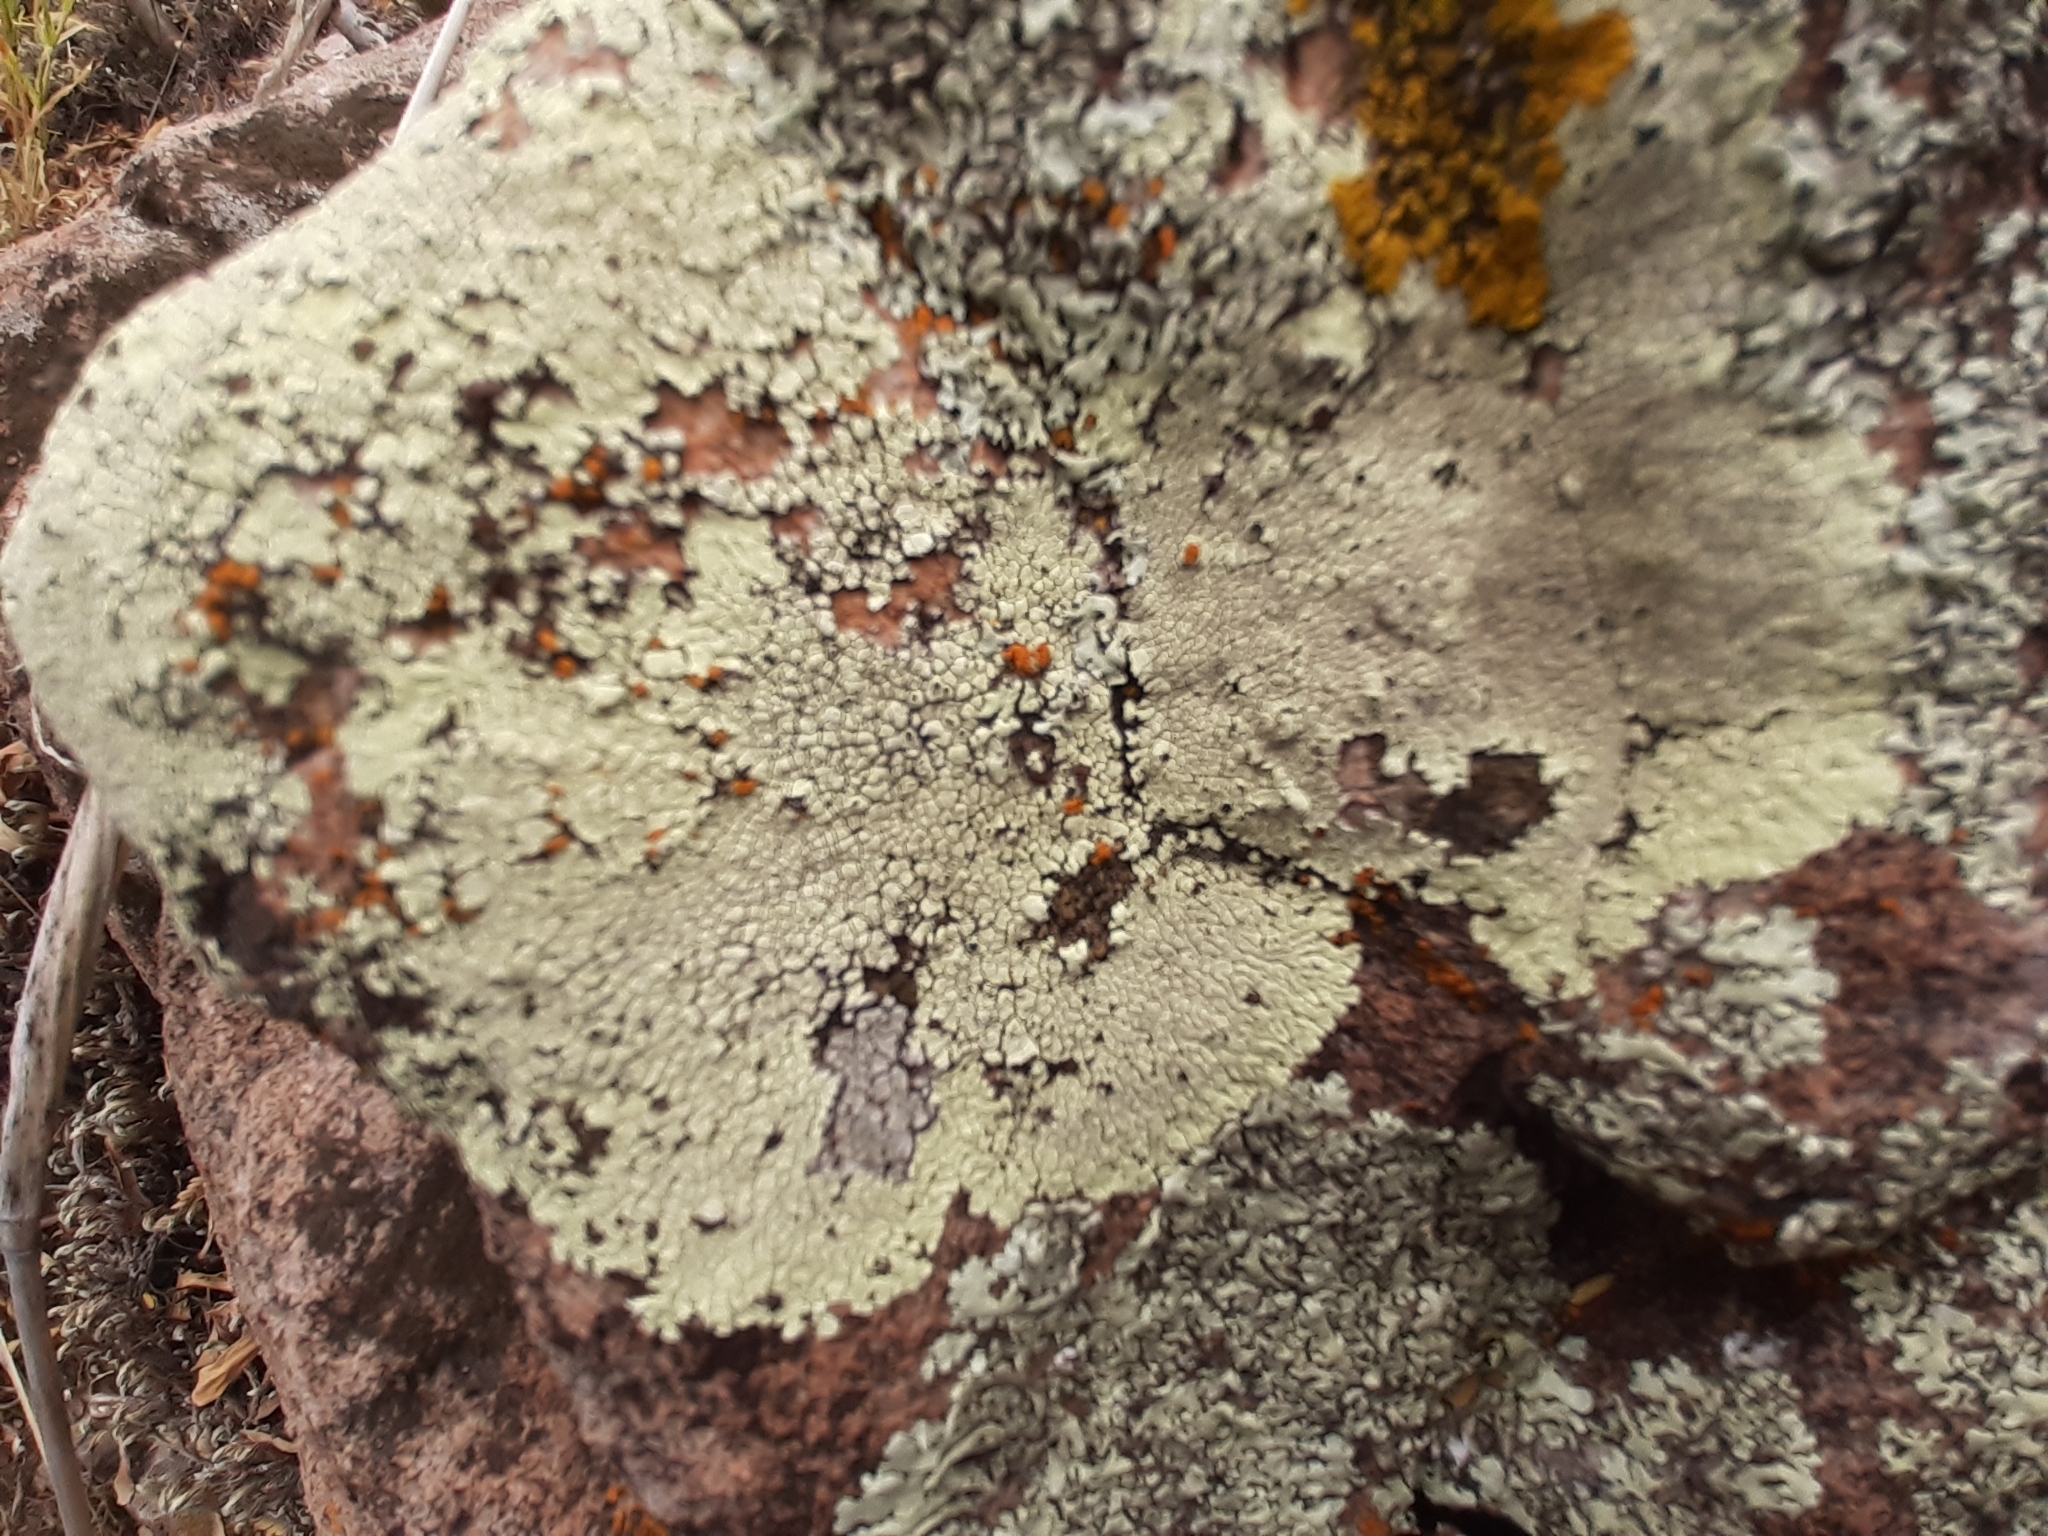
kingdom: Fungi
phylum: Ascomycota
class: Lecanoromycetes
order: Caliciales
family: Caliciaceae
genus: Dimelaena
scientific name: Dimelaena radiata
